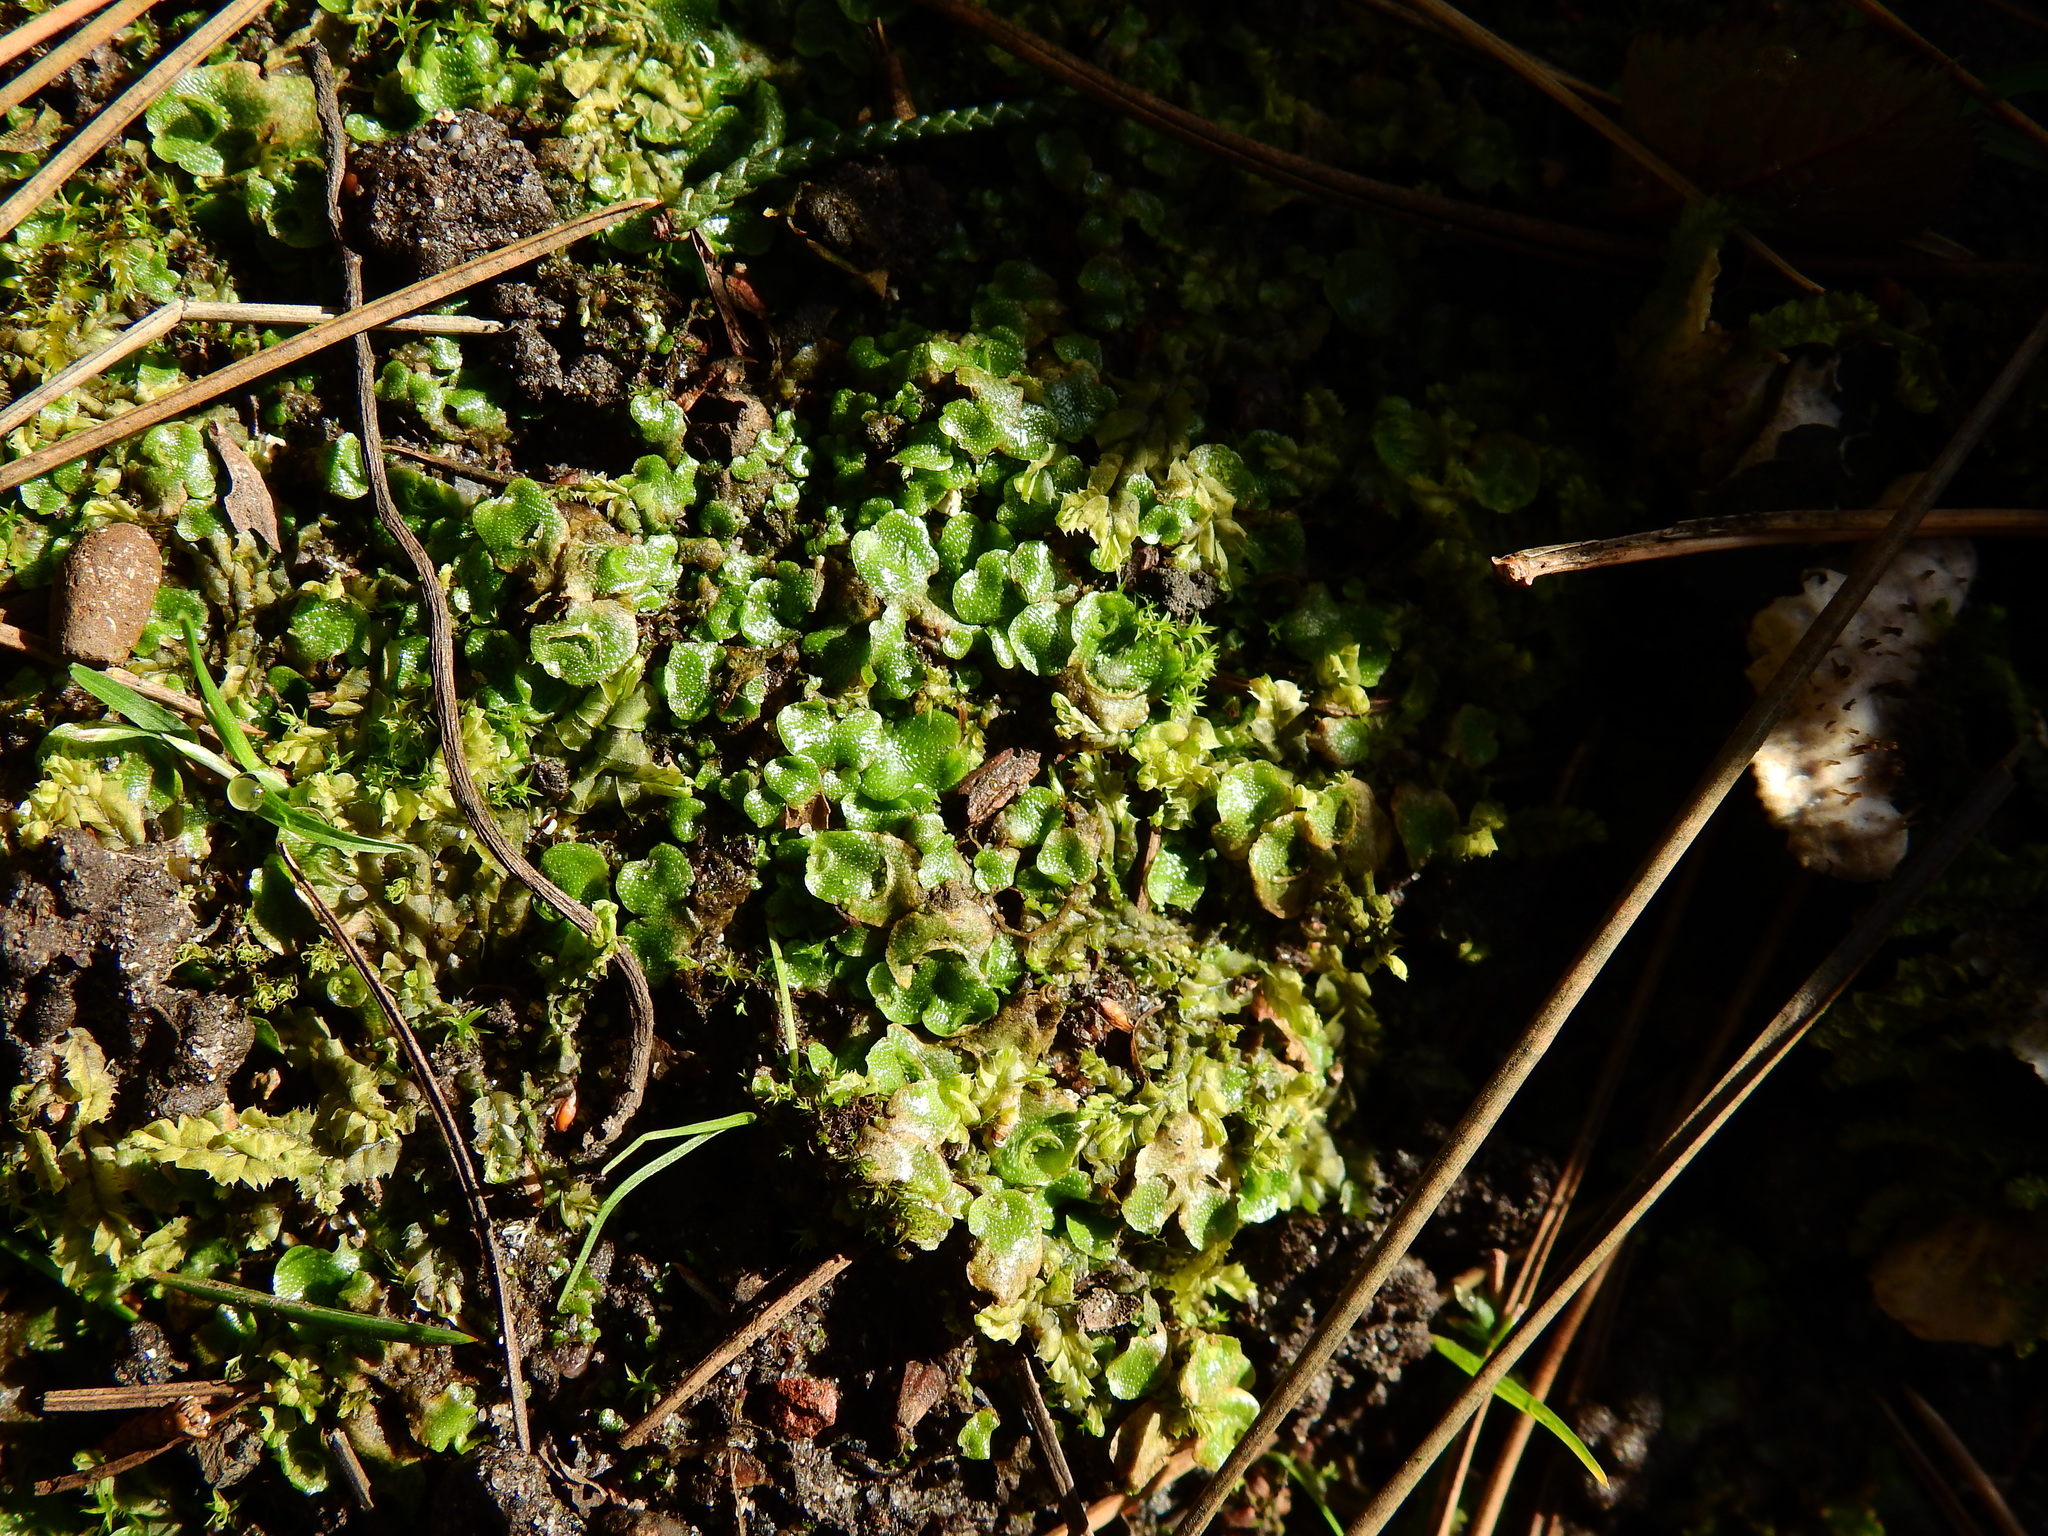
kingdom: Plantae
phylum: Marchantiophyta
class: Marchantiopsida
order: Lunulariales
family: Lunulariaceae
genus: Lunularia
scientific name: Lunularia cruciata
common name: Crescent-cup liverwort
